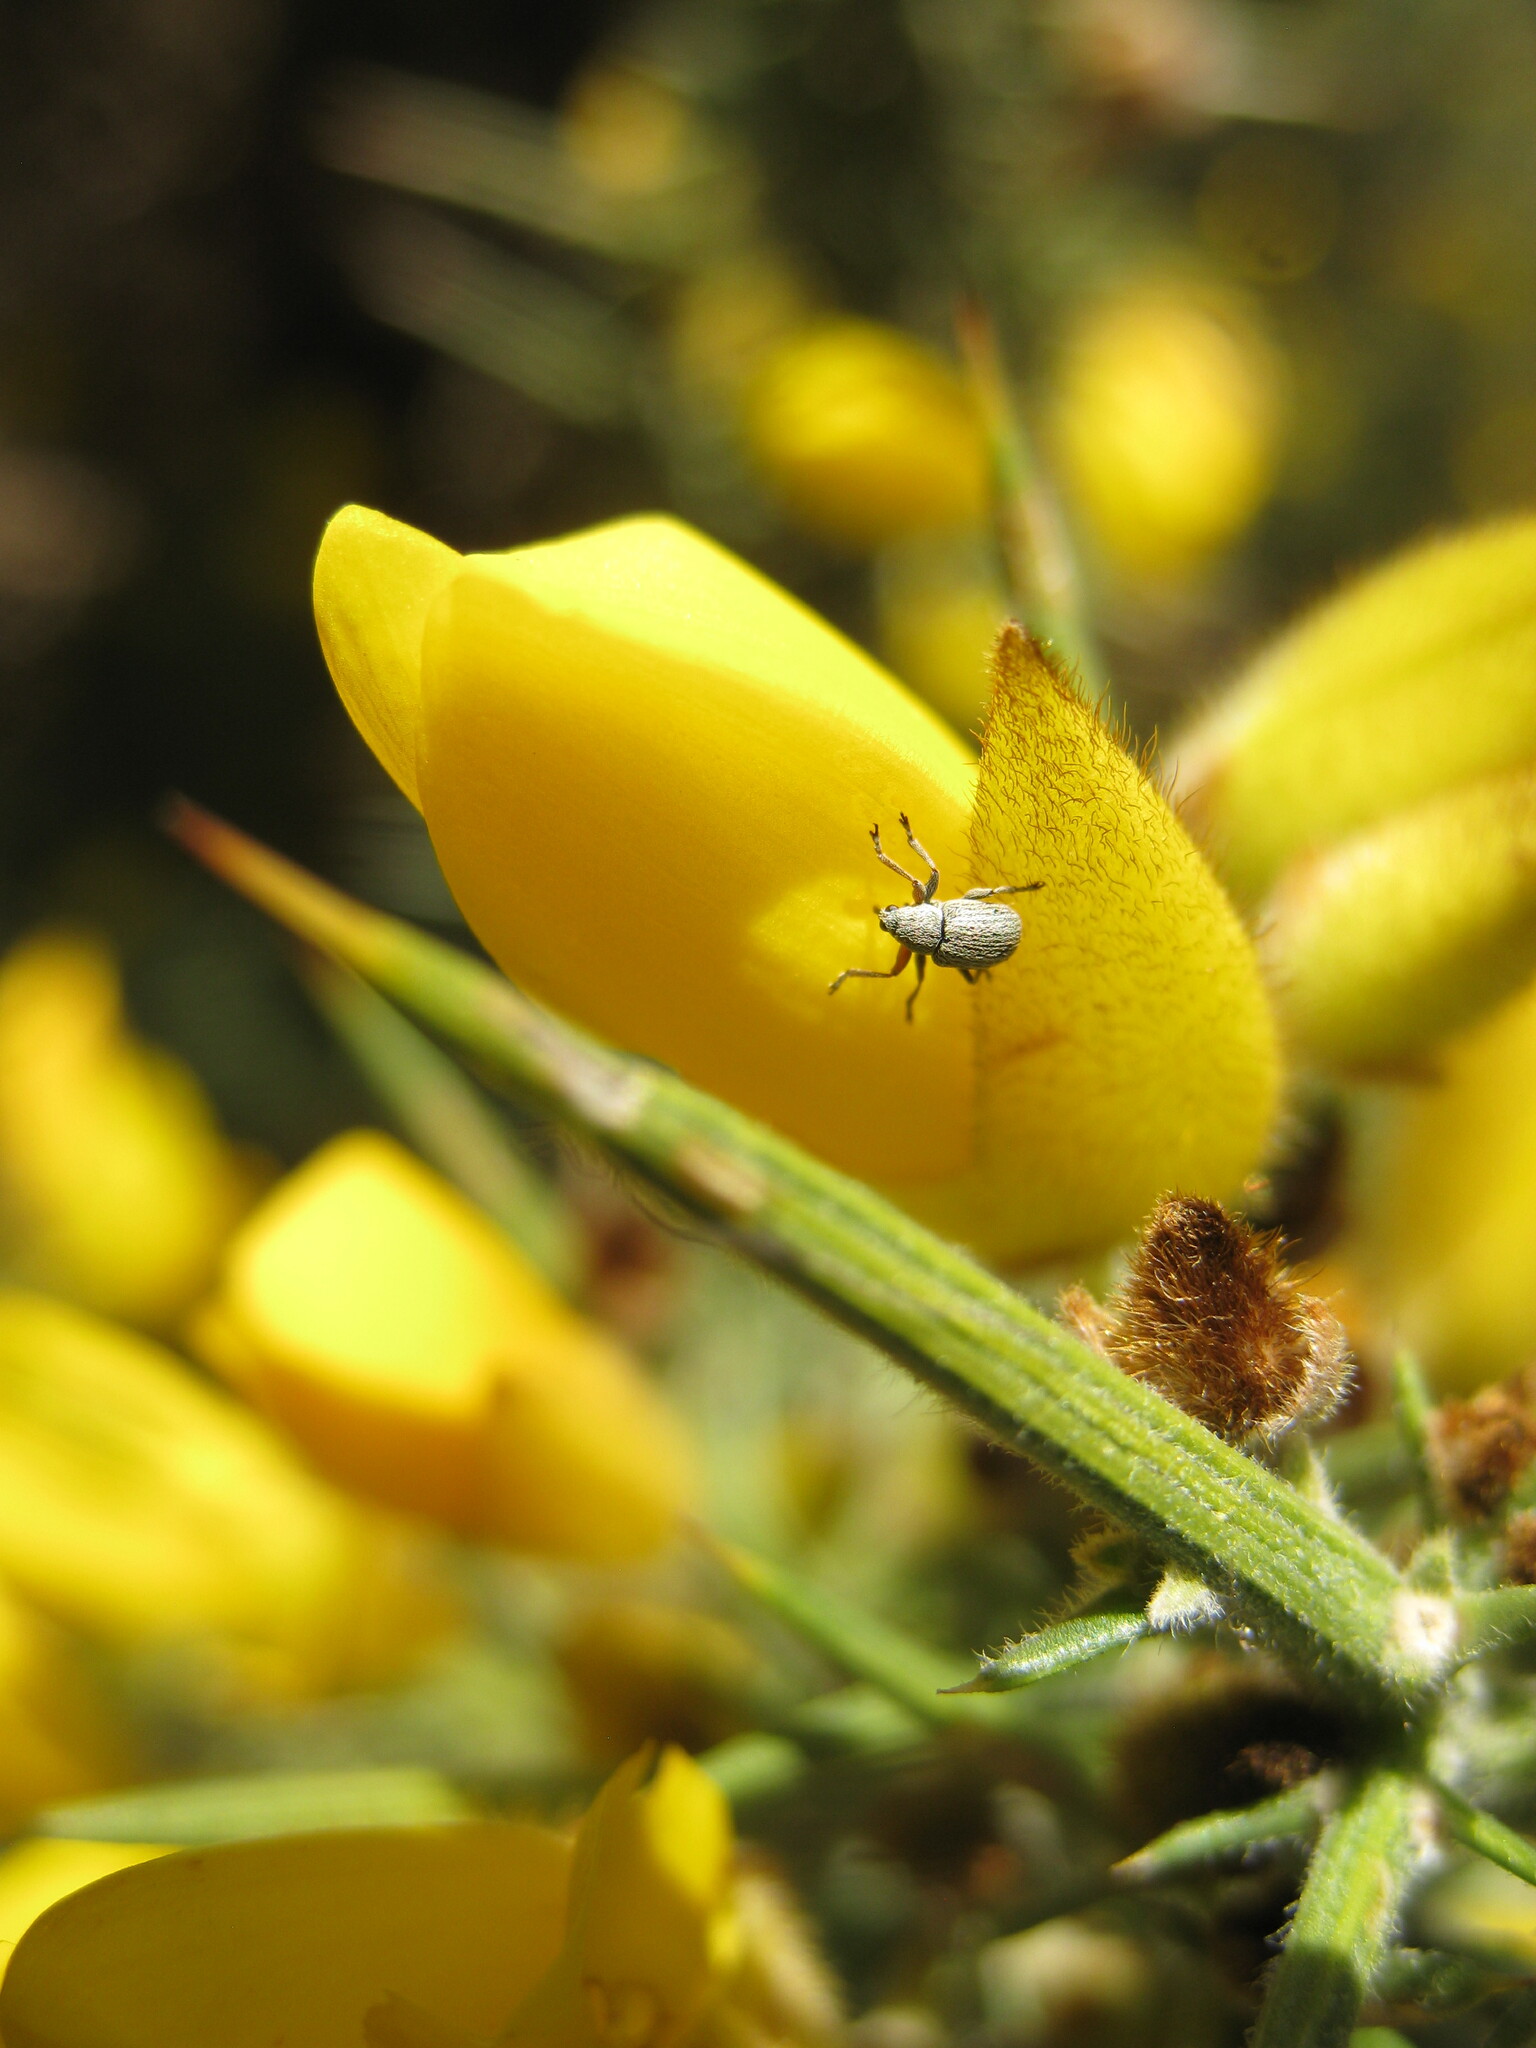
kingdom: Animalia
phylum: Arthropoda
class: Insecta
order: Coleoptera
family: Brentidae
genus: Exapion
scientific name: Exapion ulicis
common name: Gorse seed weevil
